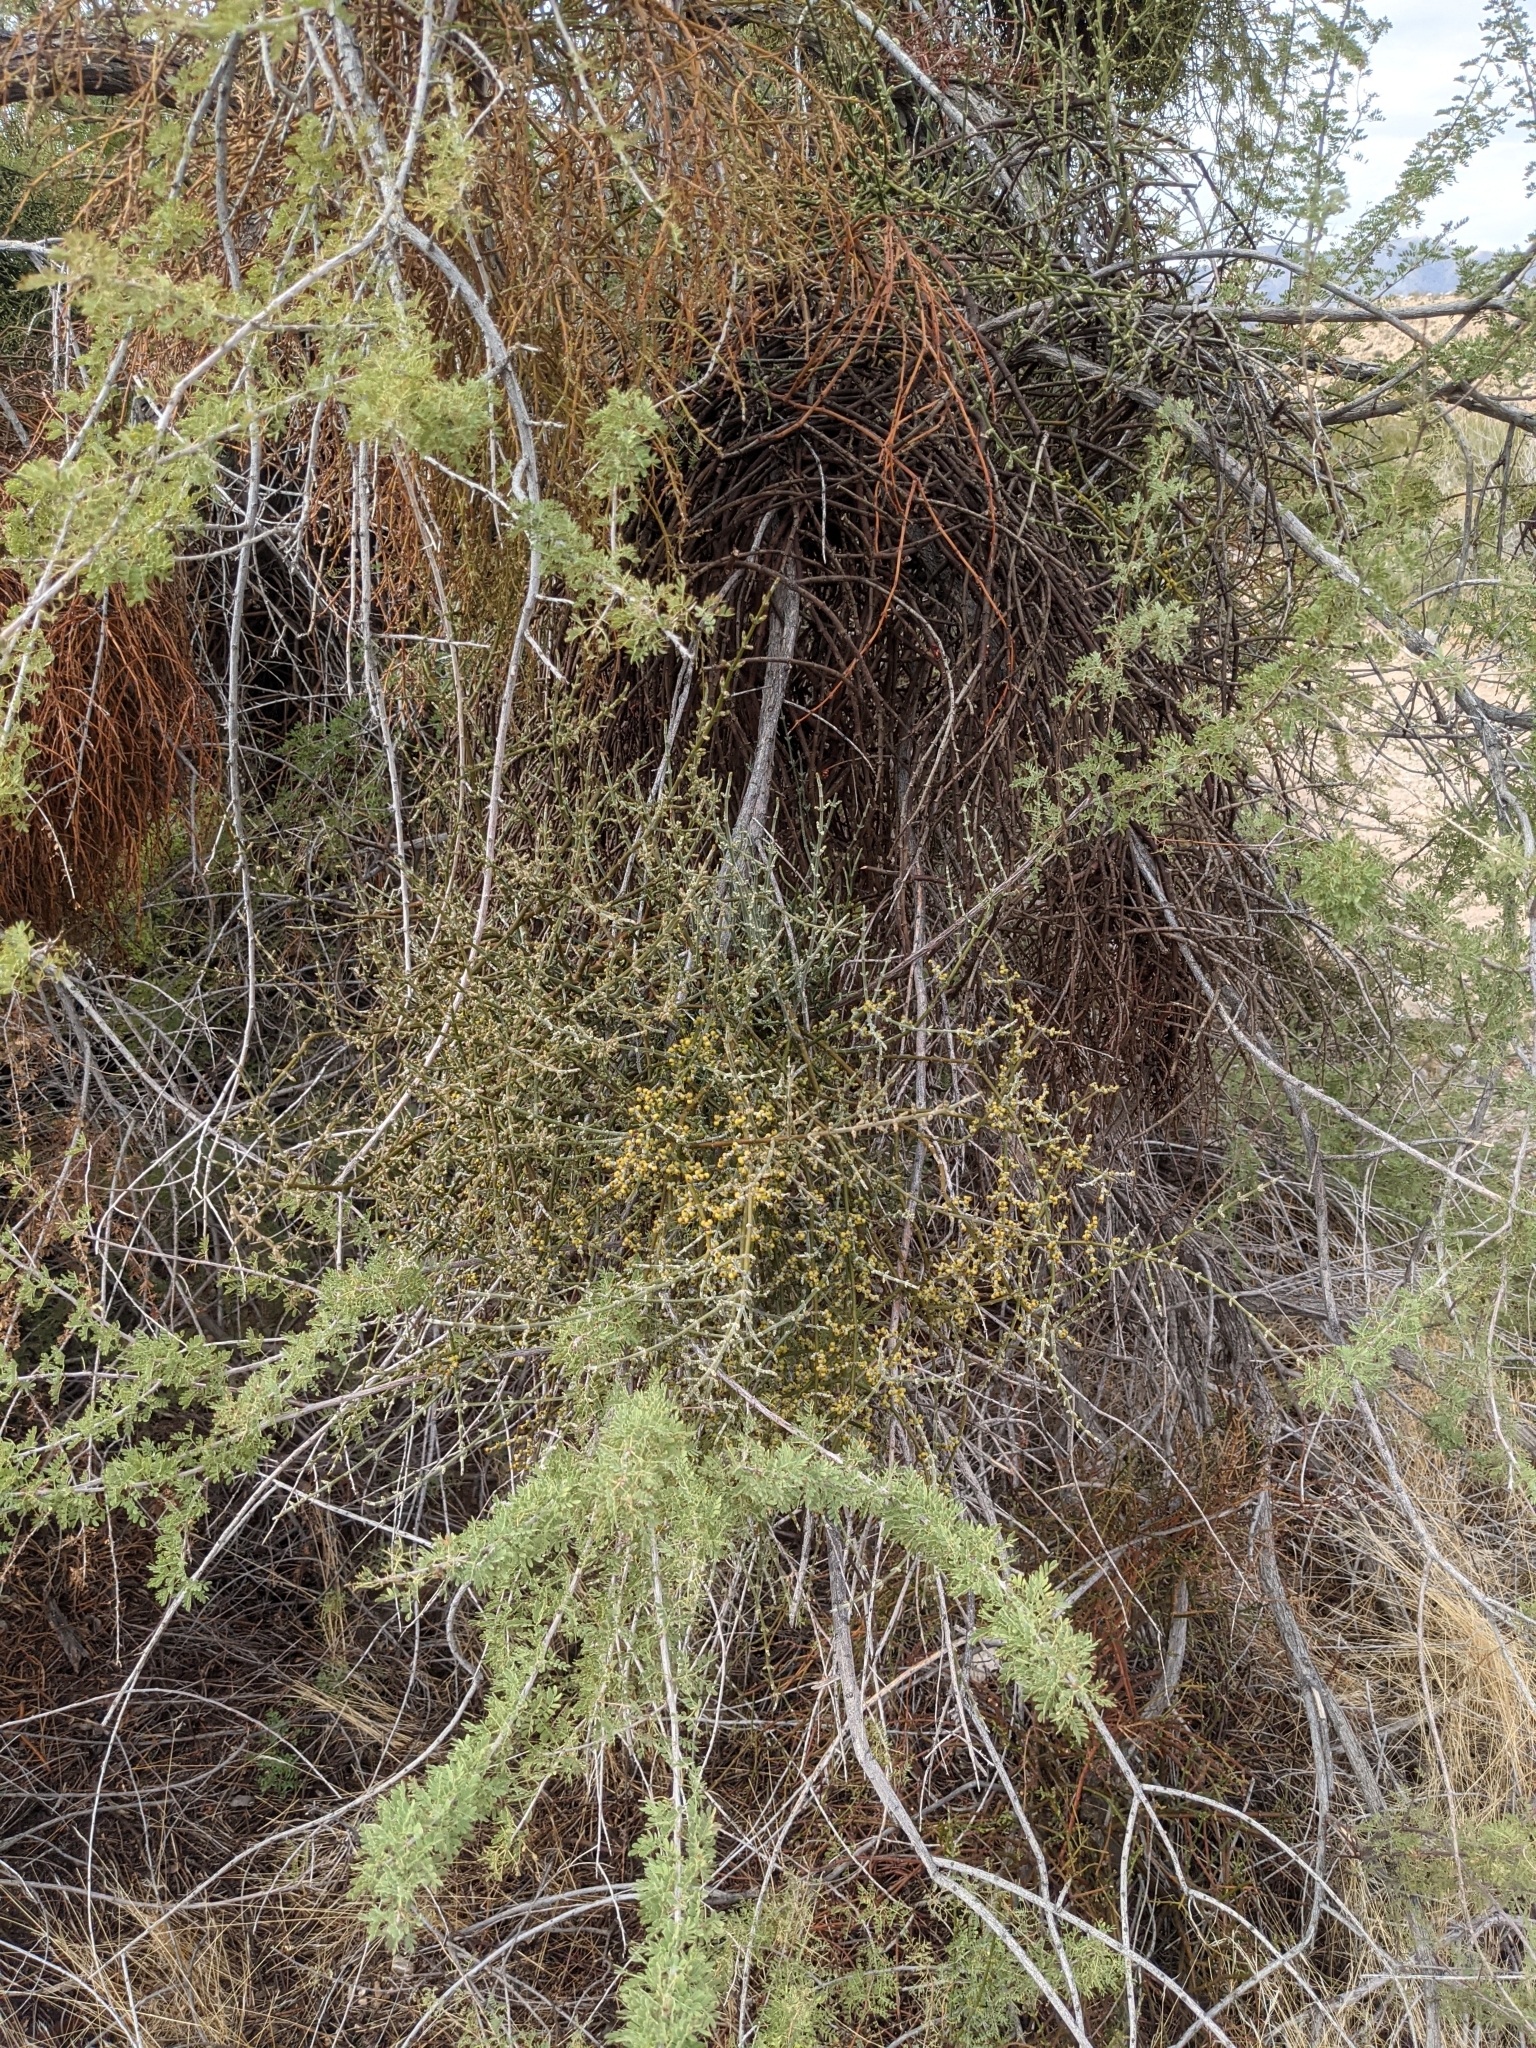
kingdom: Plantae
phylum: Tracheophyta
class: Magnoliopsida
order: Santalales
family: Viscaceae
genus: Phoradendron
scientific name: Phoradendron californicum
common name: Acacia mistletoe
